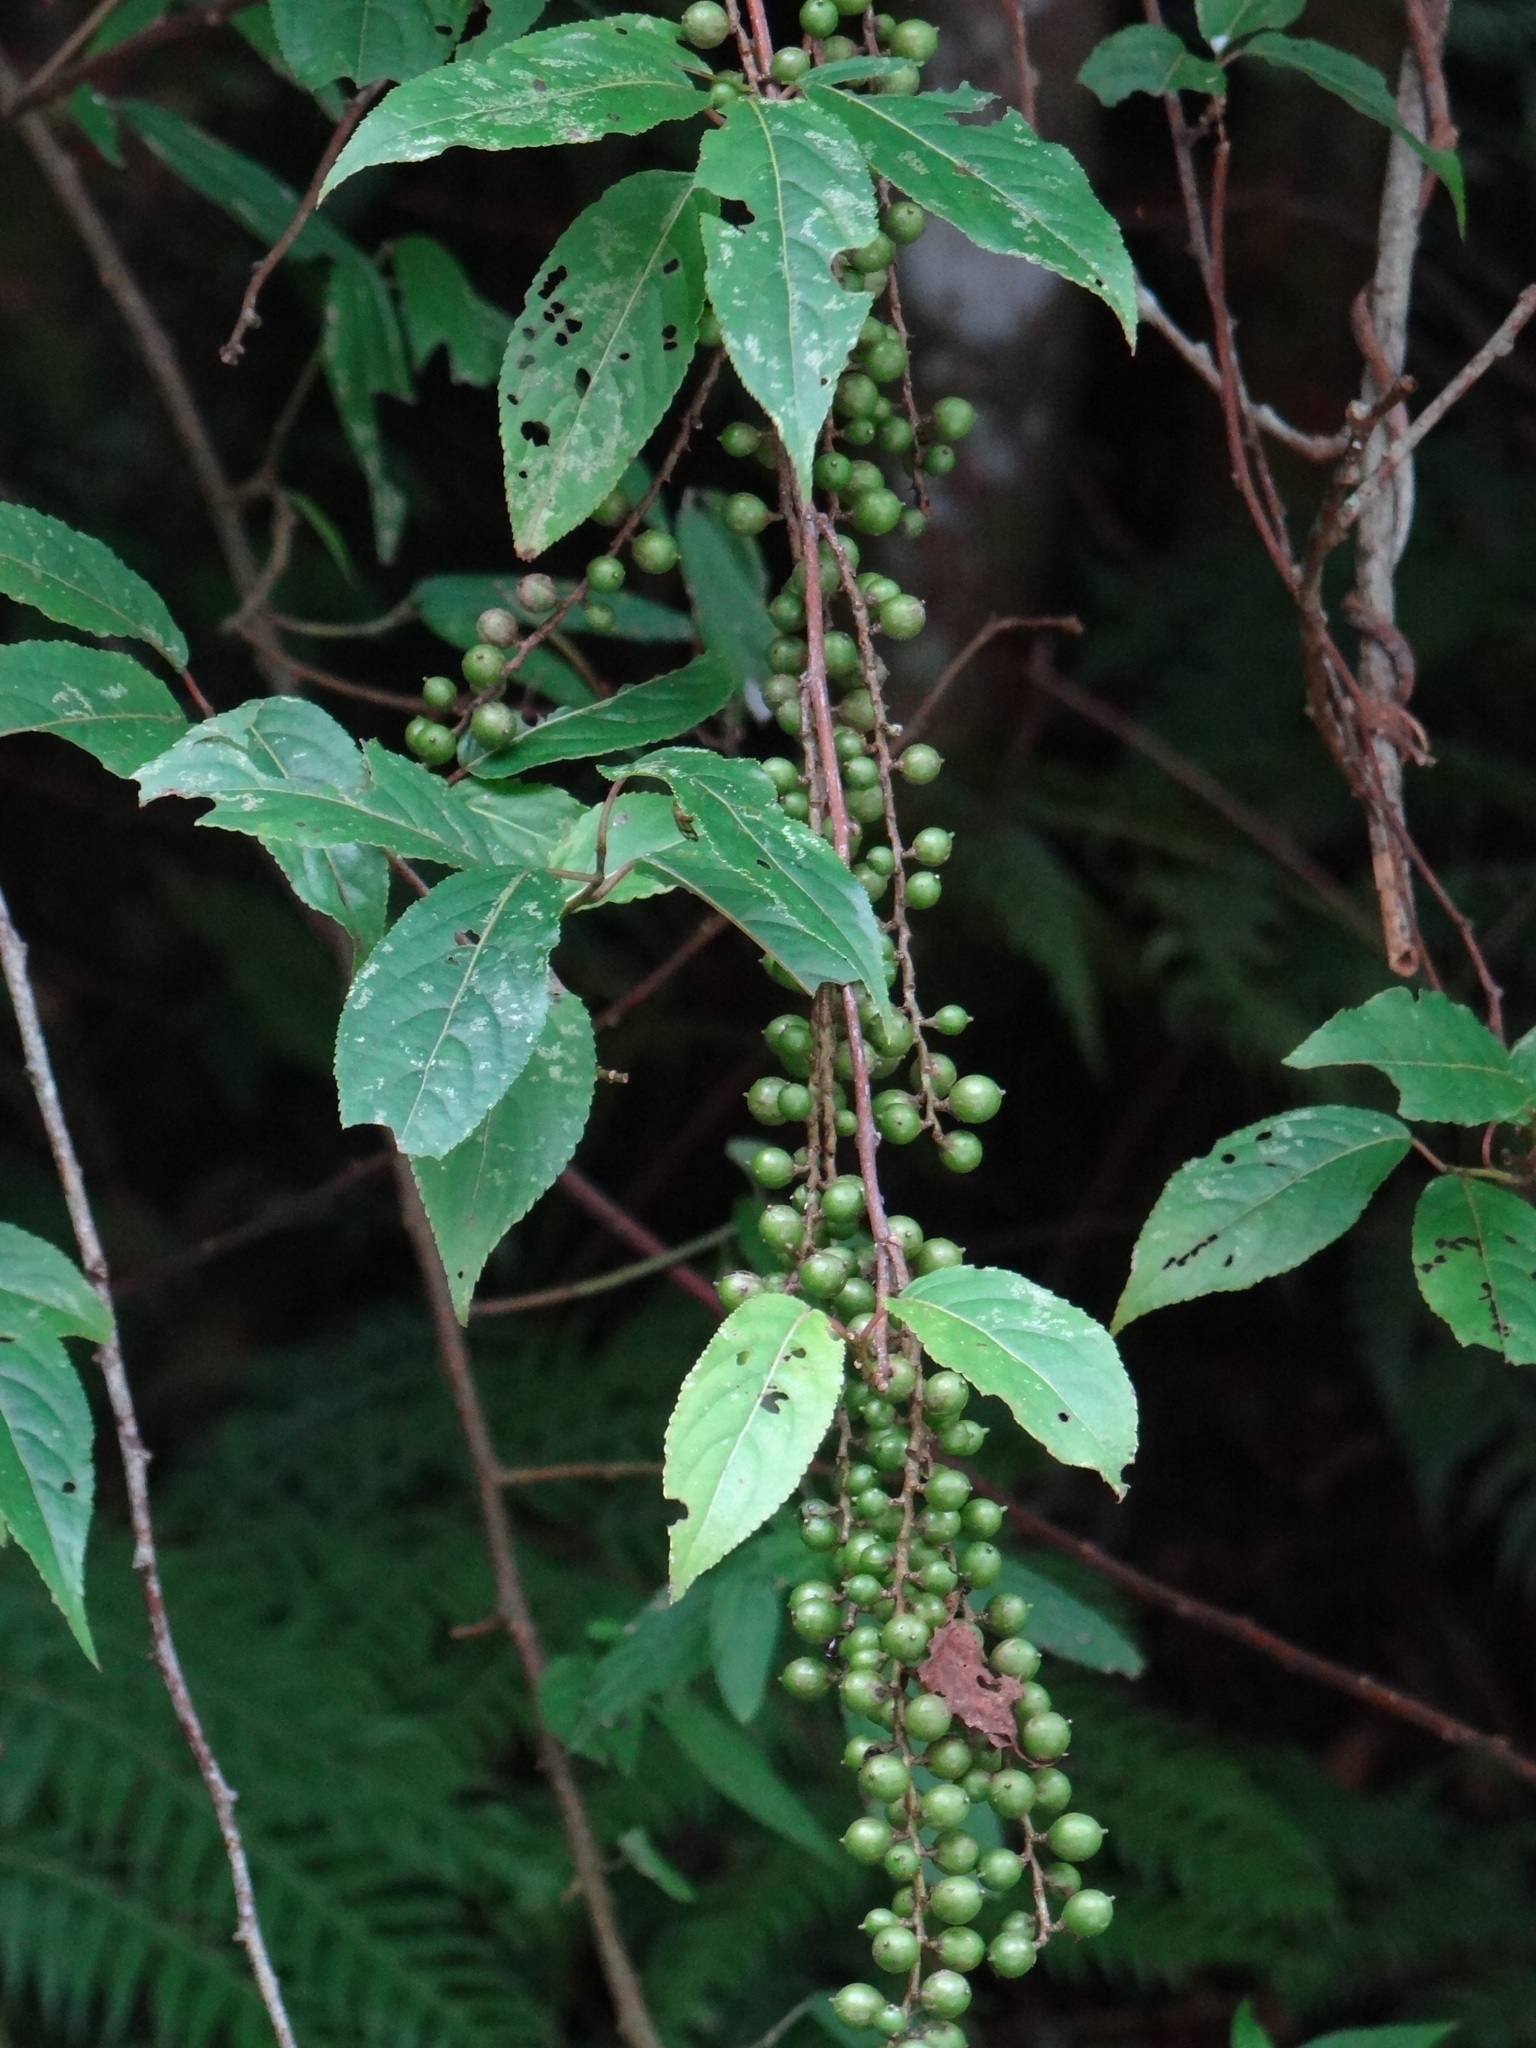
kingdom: Plantae
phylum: Tracheophyta
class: Magnoliopsida
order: Crossosomatales
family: Stachyuraceae
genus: Stachyurus
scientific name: Stachyurus himalaicus
